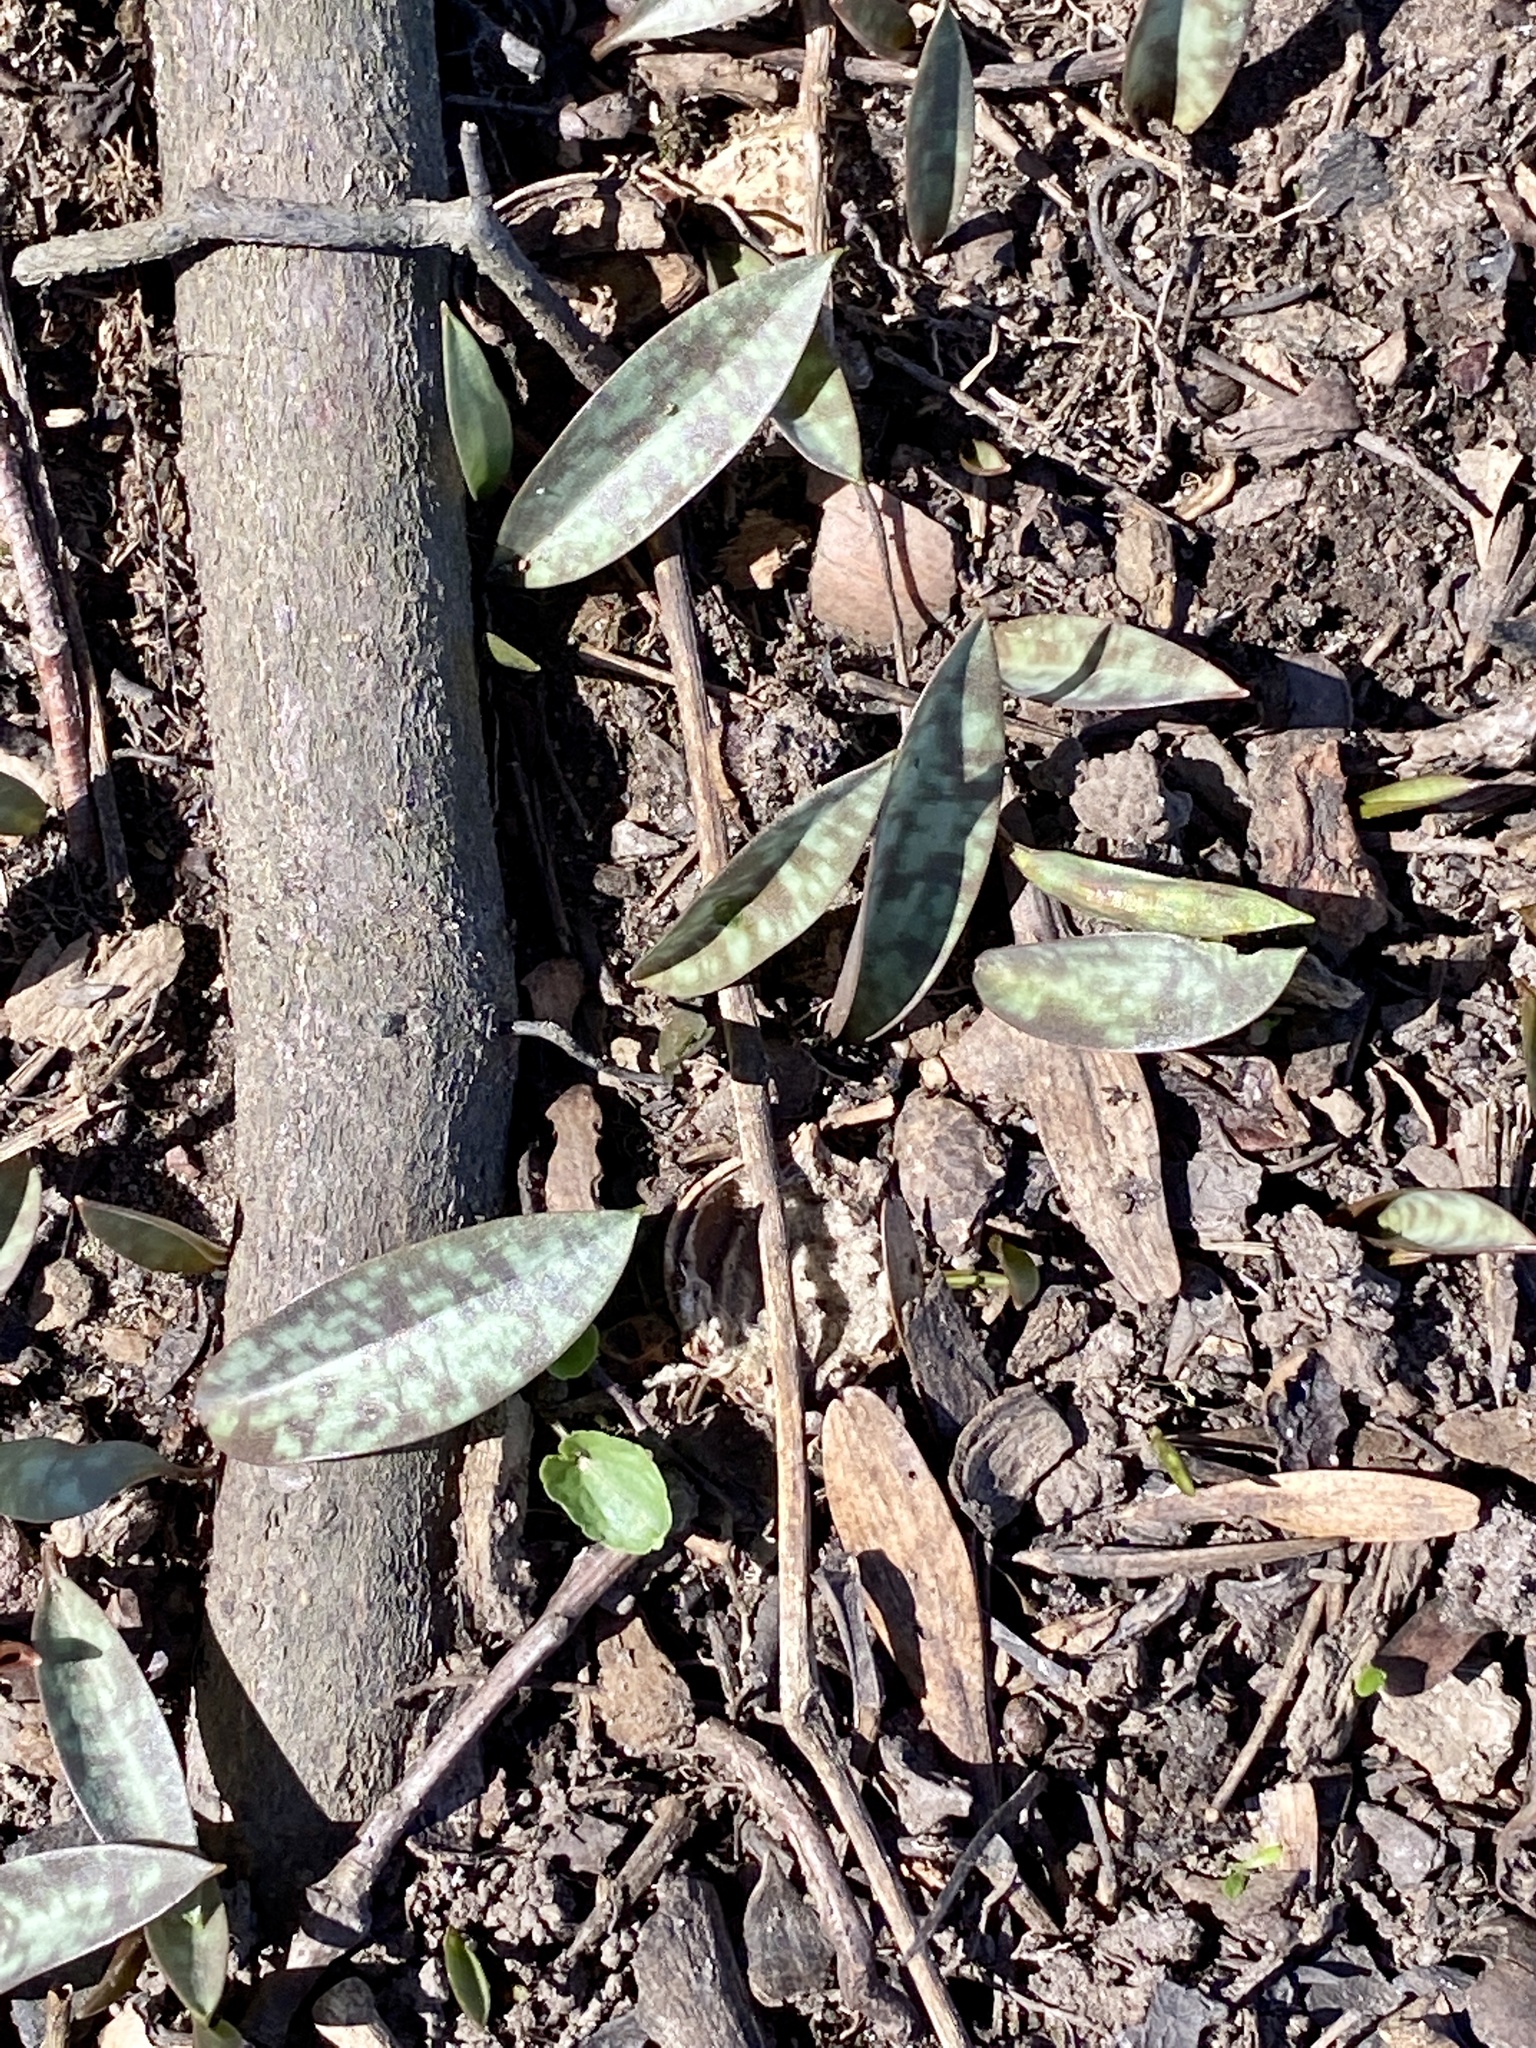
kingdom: Plantae
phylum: Tracheophyta
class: Liliopsida
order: Liliales
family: Liliaceae
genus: Erythronium
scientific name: Erythronium americanum
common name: Yellow adder's-tongue
